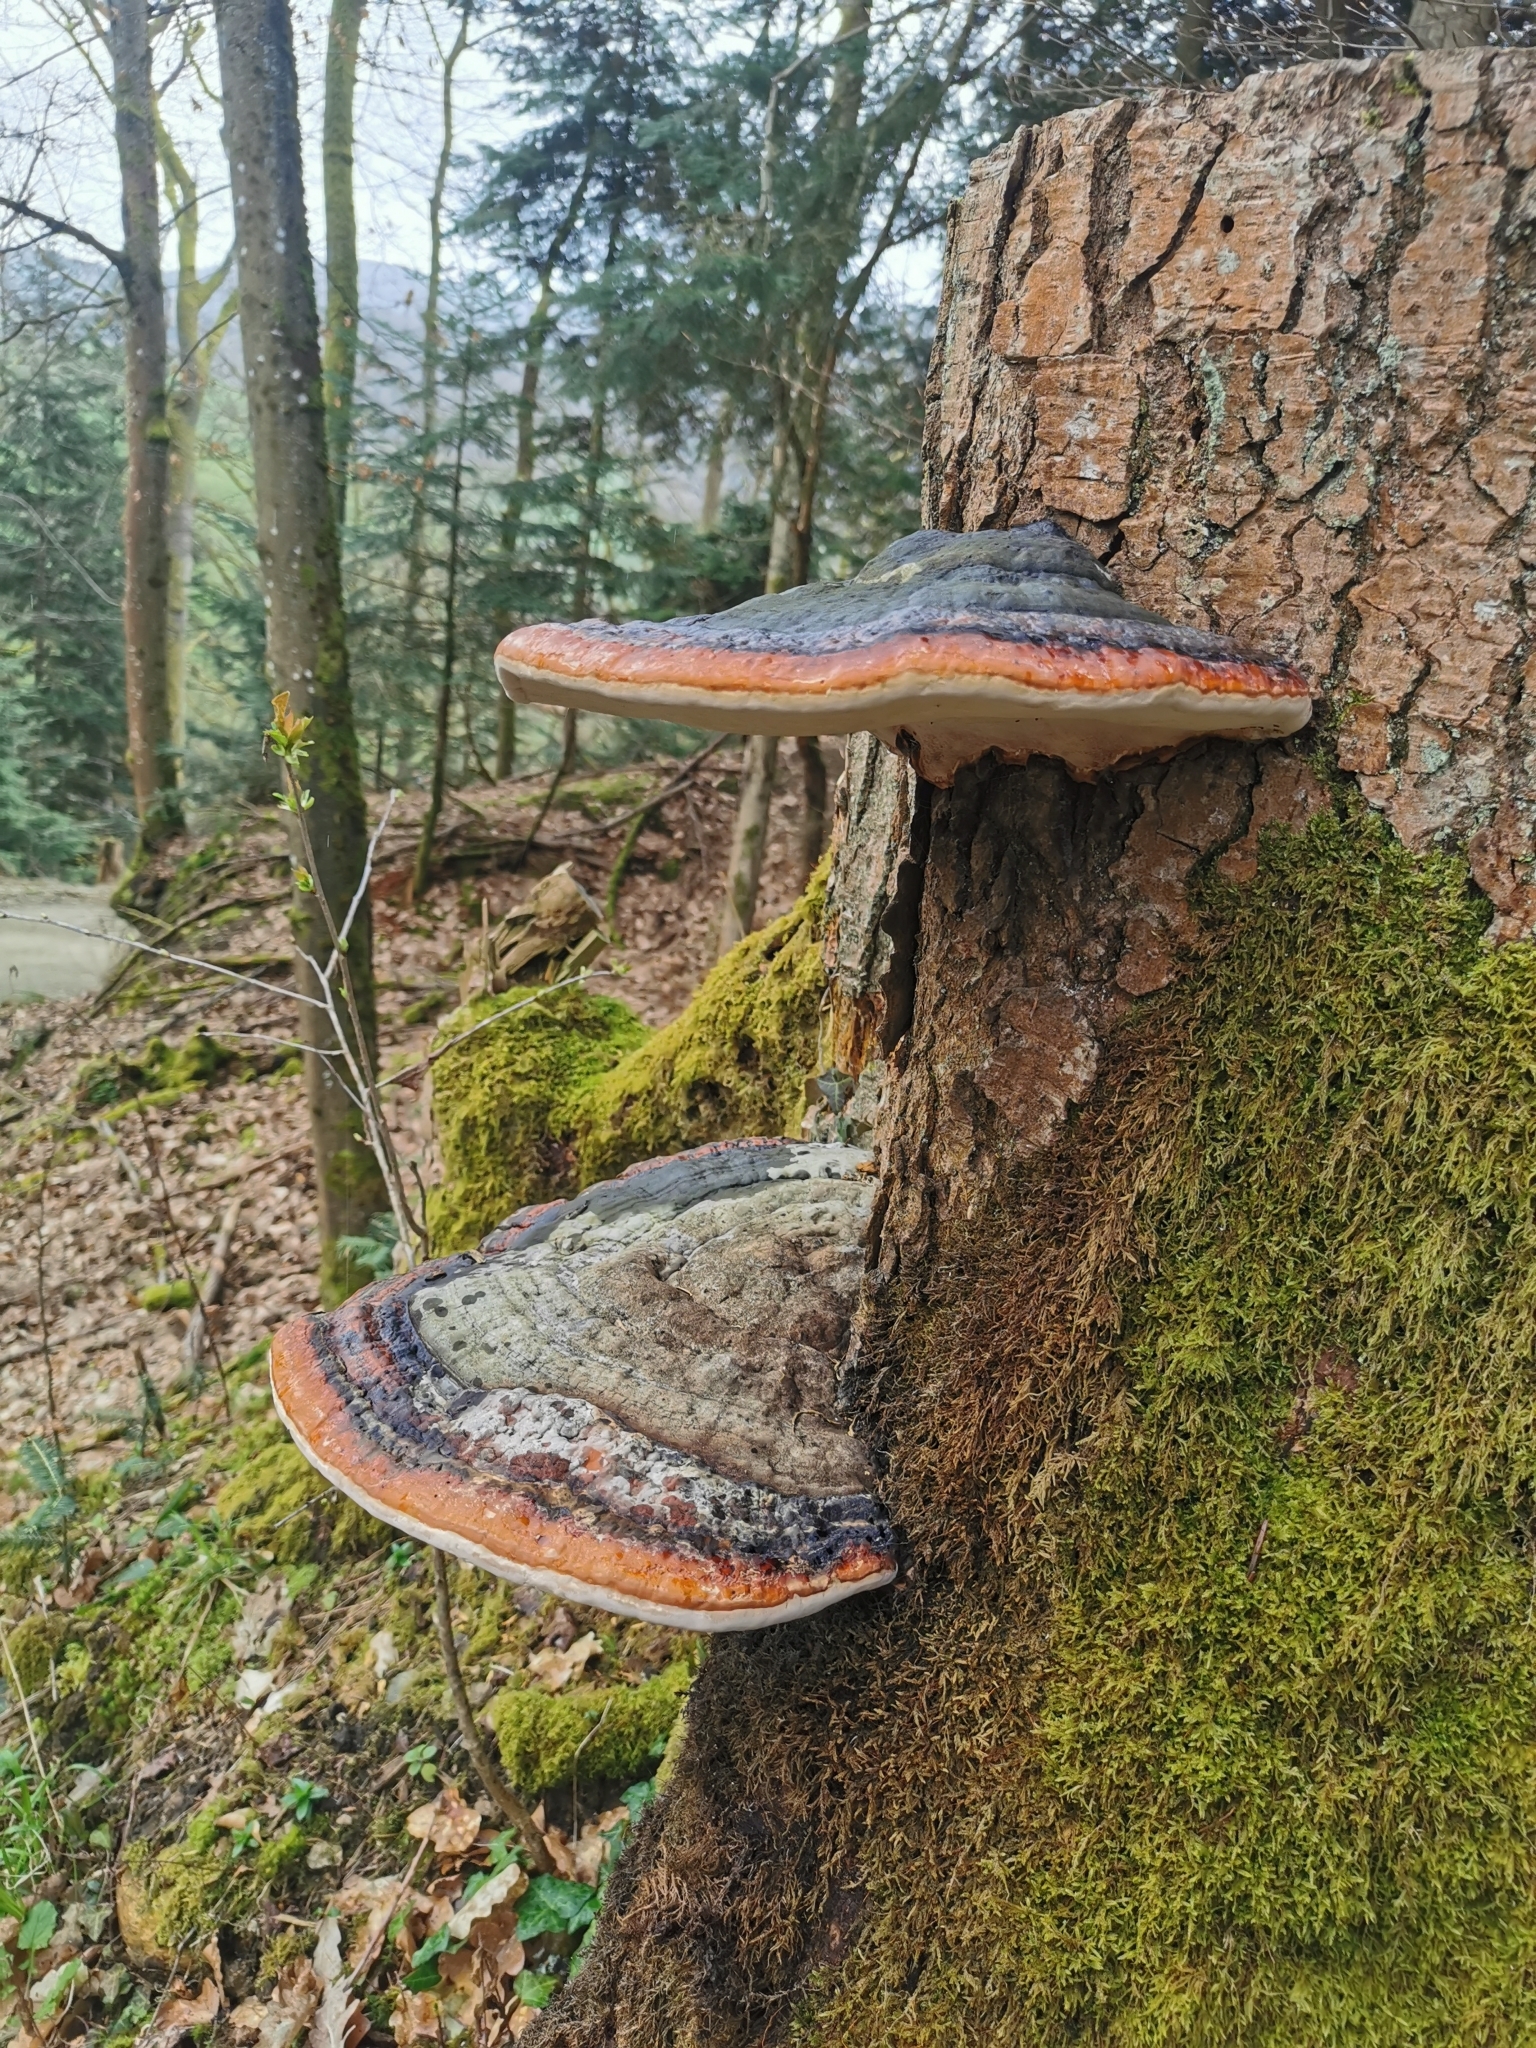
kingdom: Fungi
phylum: Basidiomycota
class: Agaricomycetes
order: Polyporales
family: Fomitopsidaceae
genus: Fomitopsis
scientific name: Fomitopsis pinicola
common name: Red-belted bracket
